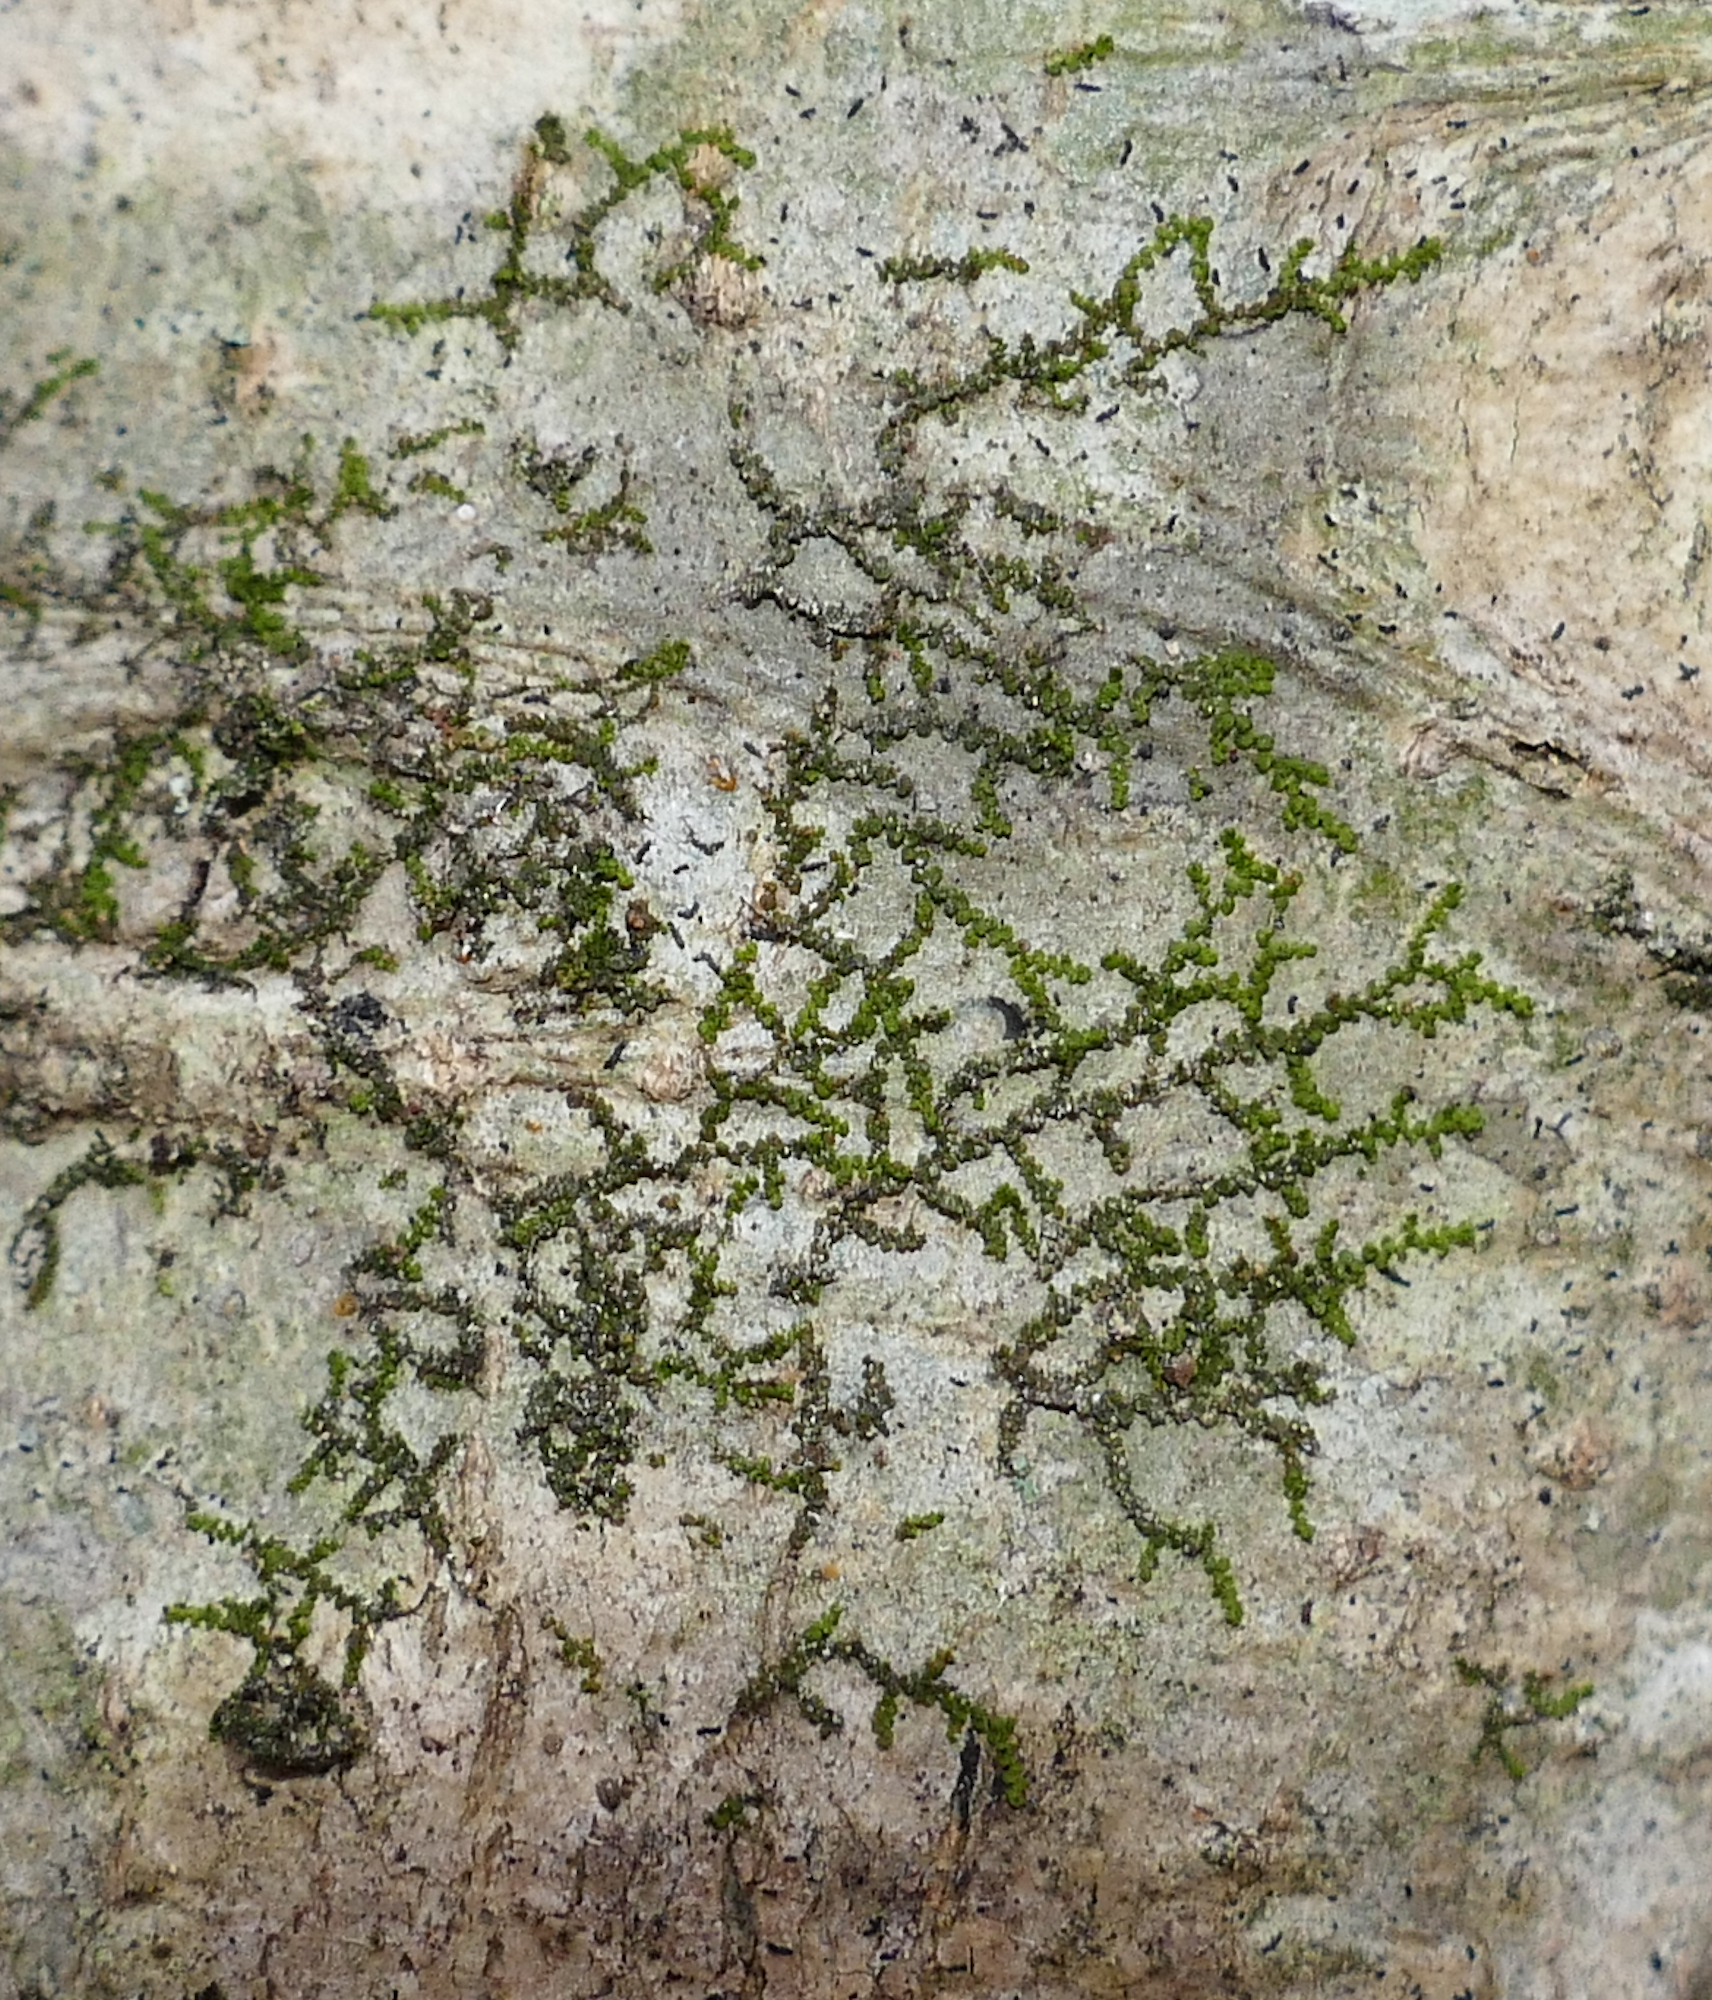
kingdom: Plantae
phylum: Marchantiophyta
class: Jungermanniopsida
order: Porellales
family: Frullaniaceae
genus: Frullania
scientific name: Frullania eboracensis
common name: New york scalewort
